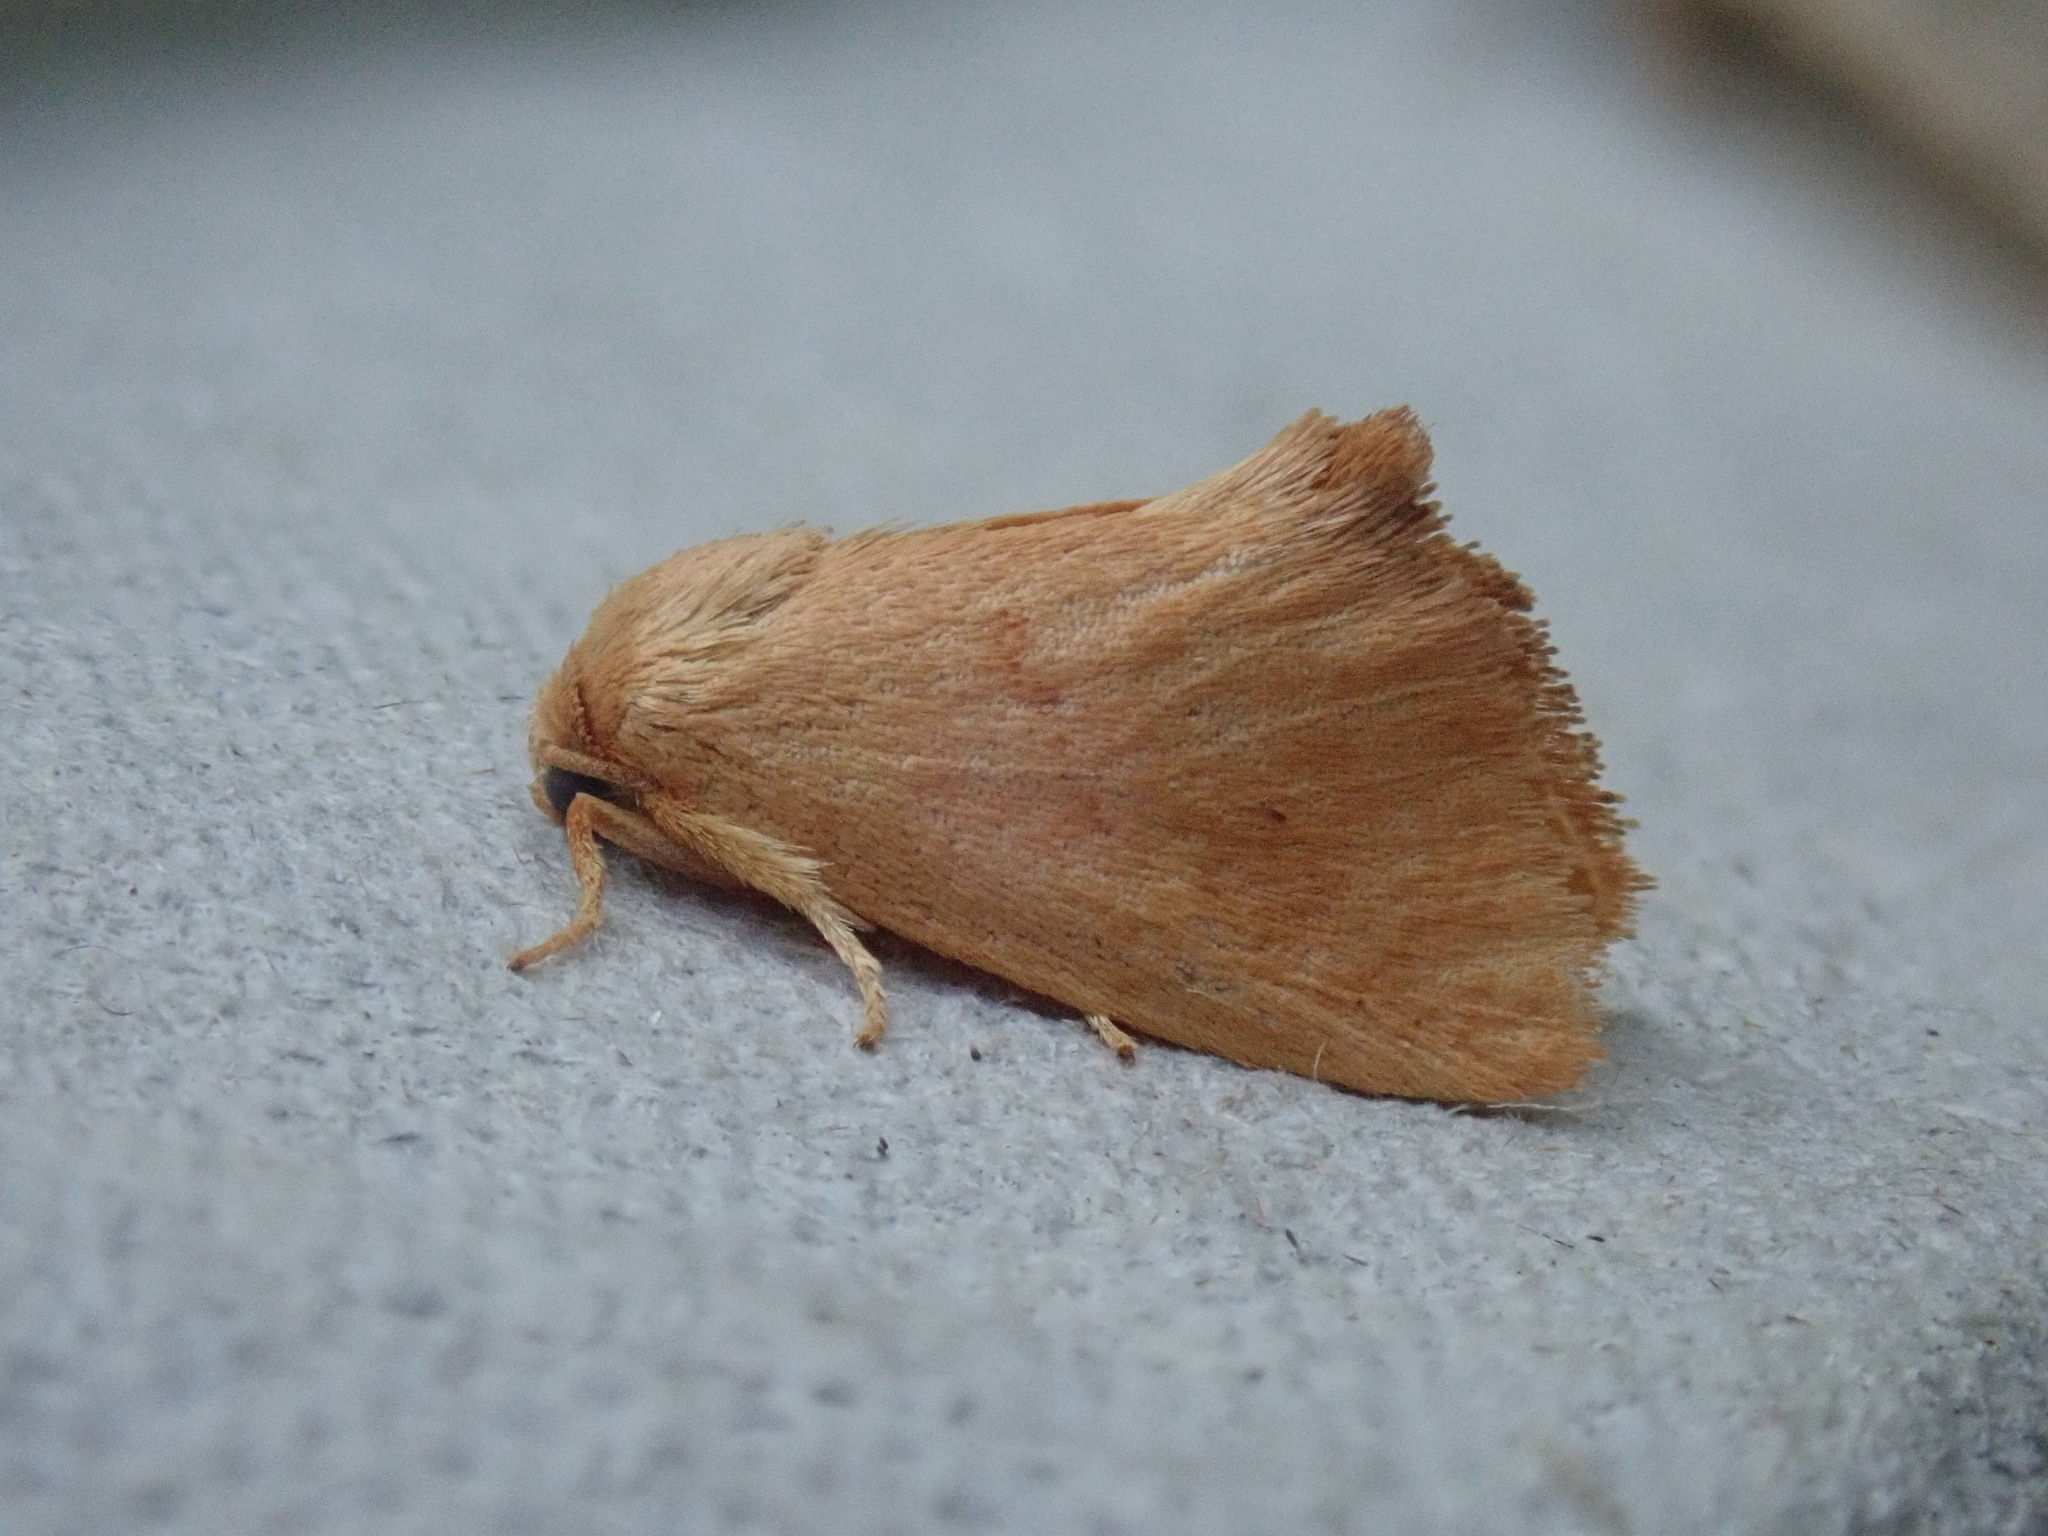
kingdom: Animalia
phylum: Arthropoda
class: Insecta
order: Lepidoptera
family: Limacodidae
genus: Tortricidia
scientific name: Tortricidia pallida
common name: Red-crossed button slug moth
